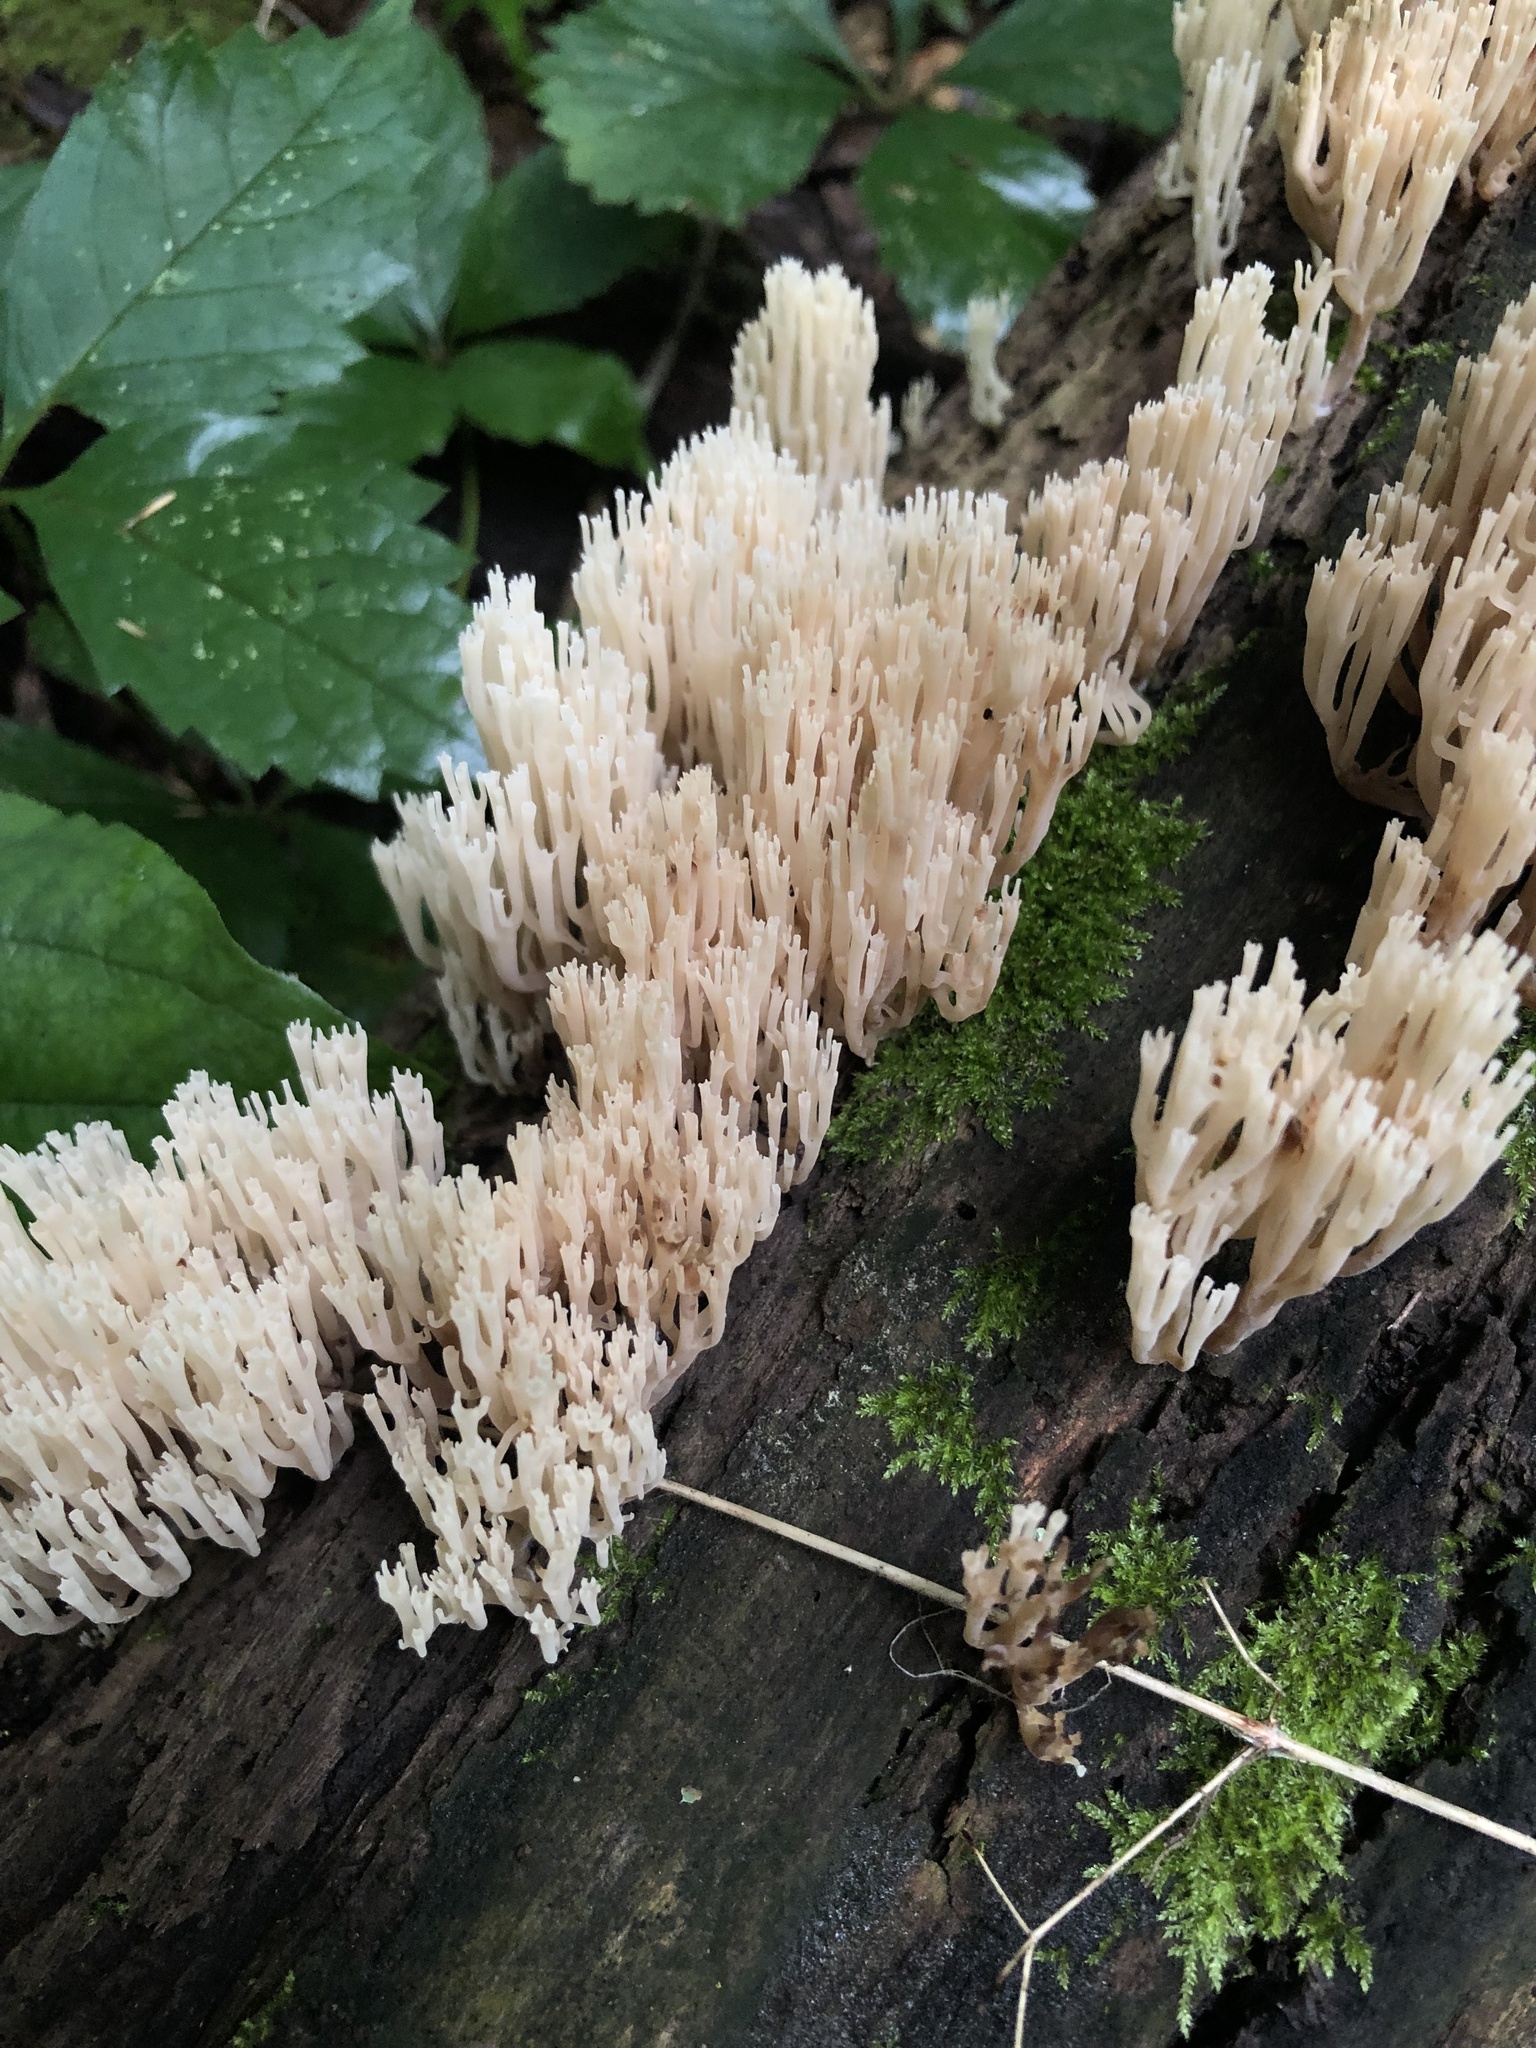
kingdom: Fungi
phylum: Basidiomycota
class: Agaricomycetes
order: Russulales
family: Auriscalpiaceae
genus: Artomyces
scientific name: Artomyces pyxidatus
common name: Crown-tipped coral fungus
